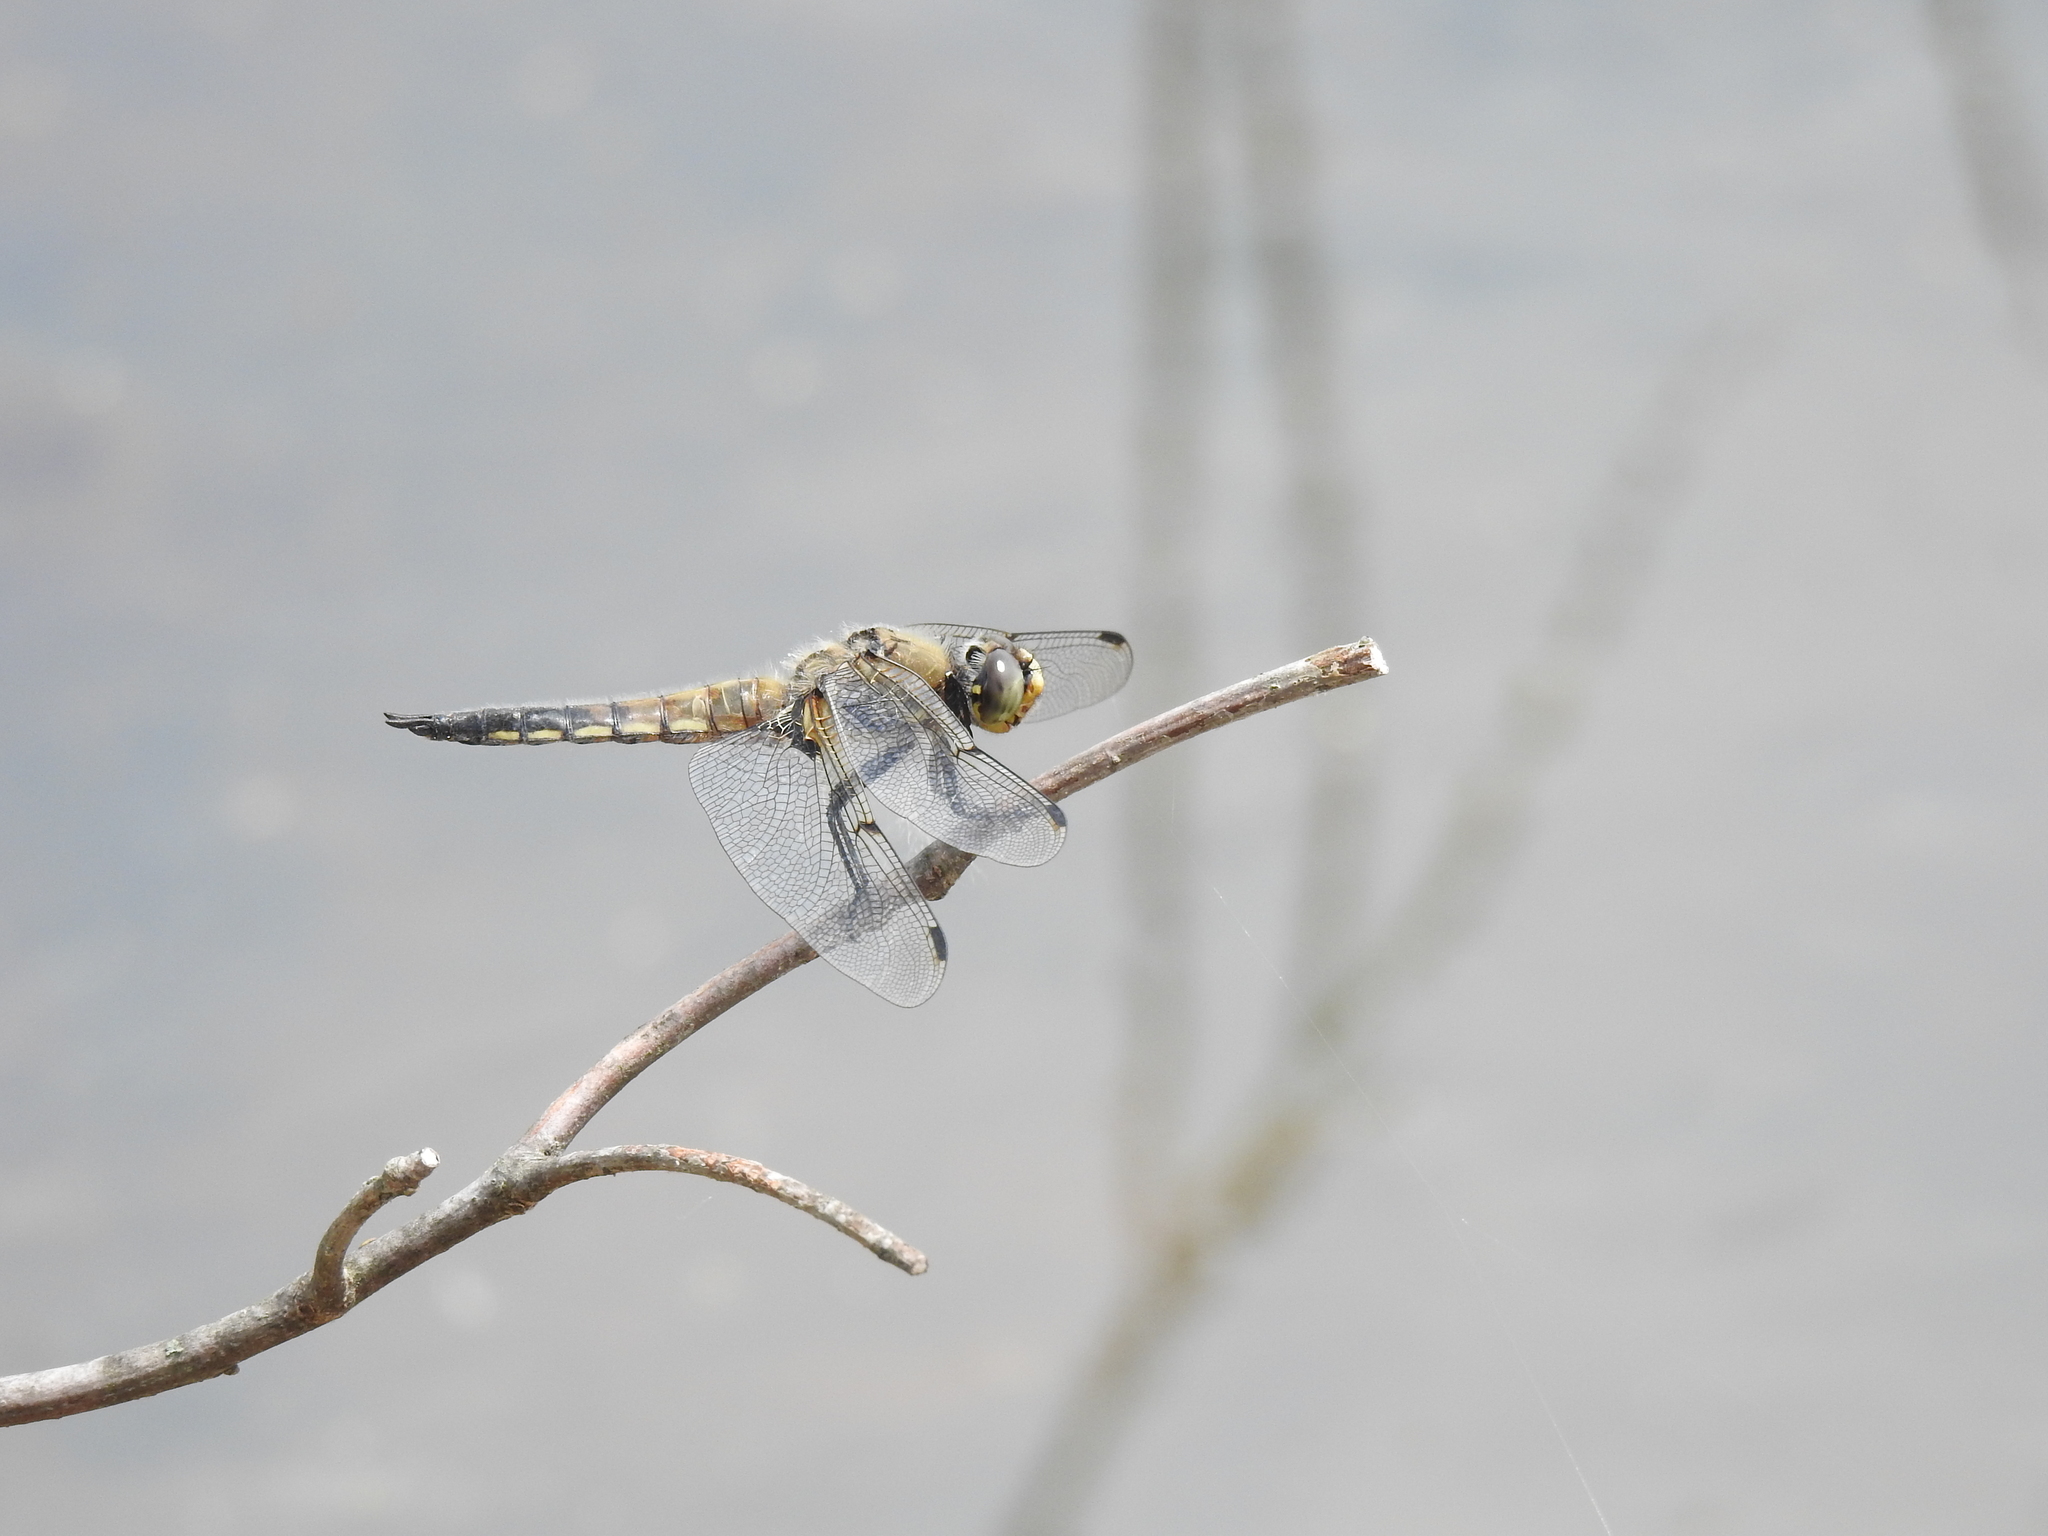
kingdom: Animalia
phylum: Arthropoda
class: Insecta
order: Odonata
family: Libellulidae
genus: Libellula
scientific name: Libellula quadrimaculata
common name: Four-spotted chaser
